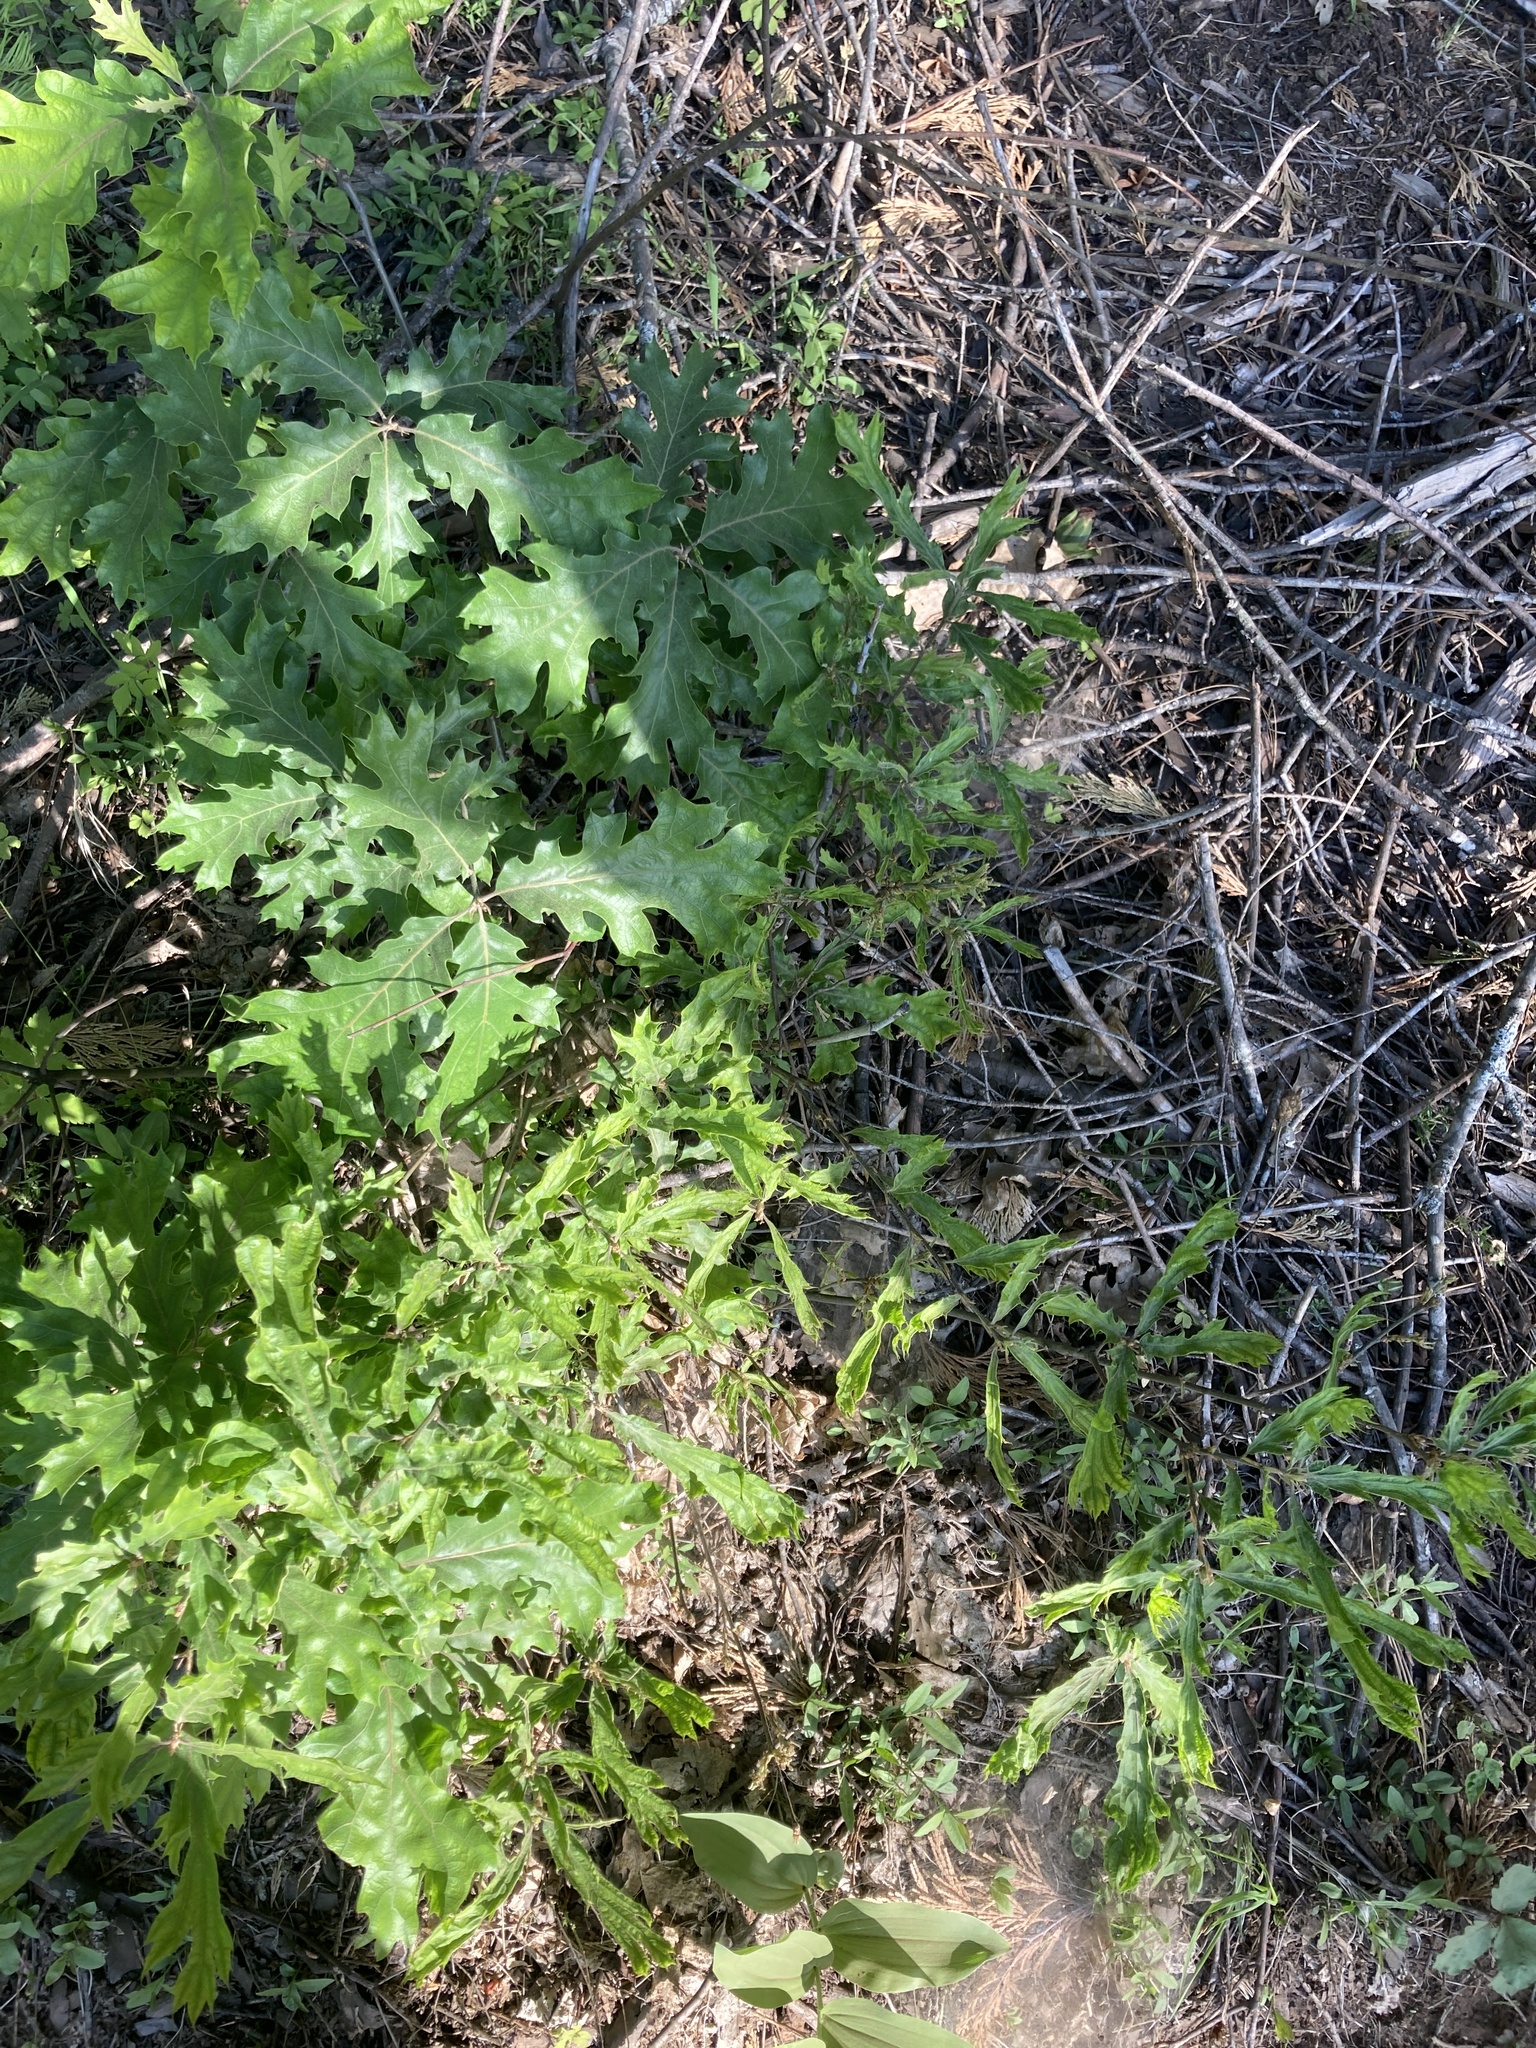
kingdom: Plantae
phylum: Tracheophyta
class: Magnoliopsida
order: Fagales
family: Fagaceae
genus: Quercus
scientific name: Quercus kelloggii
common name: California black oak
